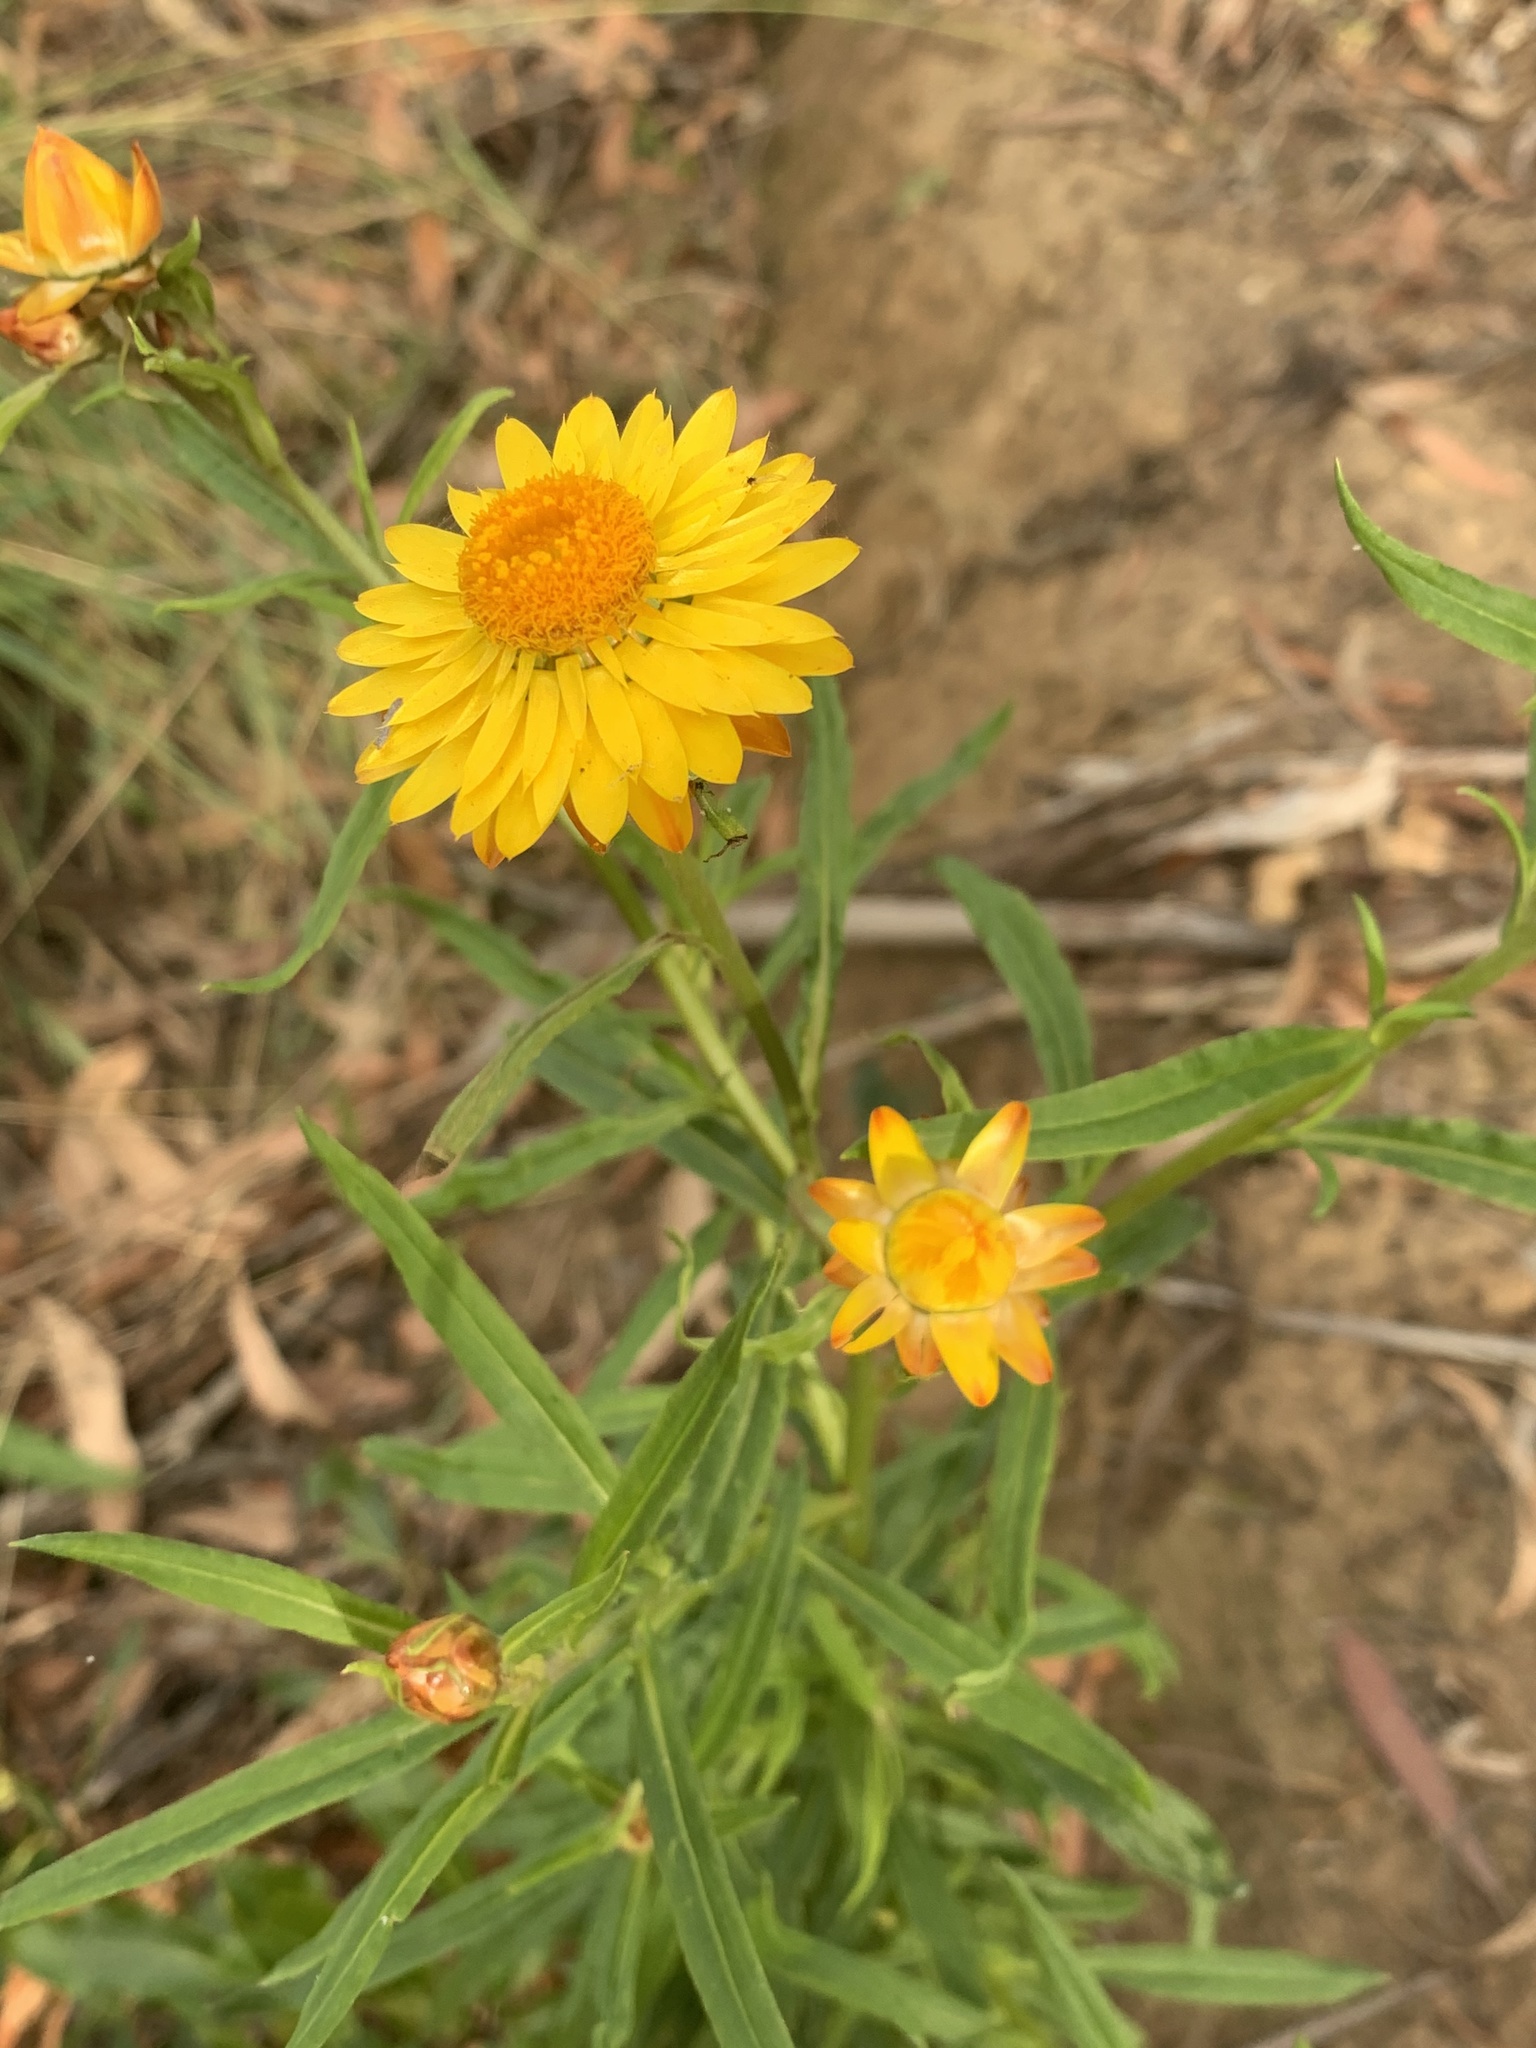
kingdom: Plantae
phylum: Tracheophyta
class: Magnoliopsida
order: Asterales
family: Asteraceae
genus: Xerochrysum
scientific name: Xerochrysum bracteatum
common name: Bracted strawflower
